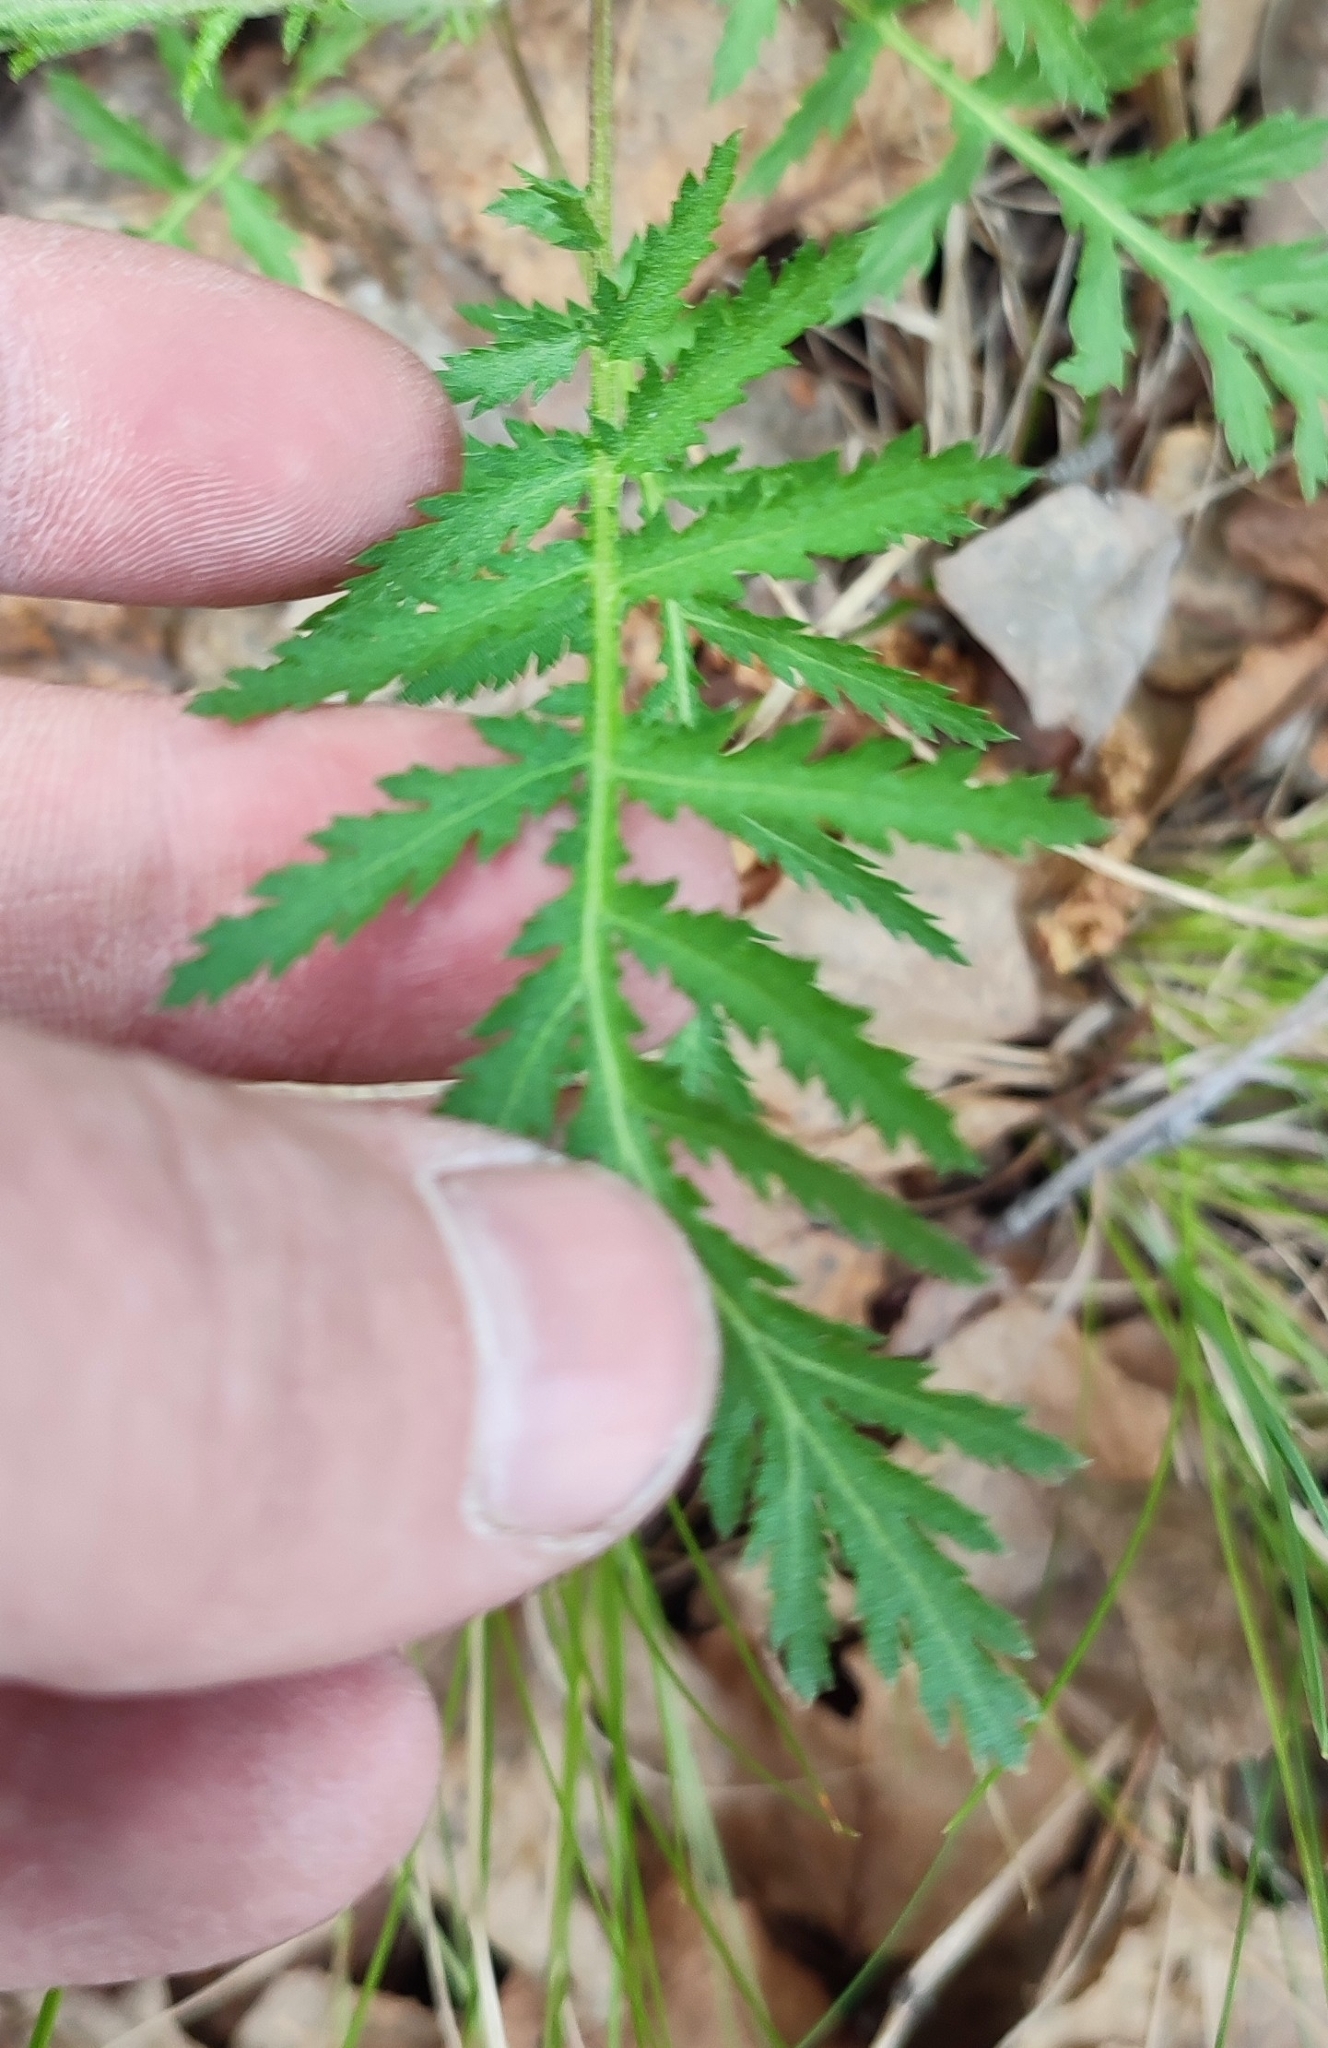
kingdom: Plantae
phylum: Tracheophyta
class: Magnoliopsida
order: Asterales
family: Asteraceae
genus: Tanacetum
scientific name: Tanacetum vulgare
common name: Common tansy
